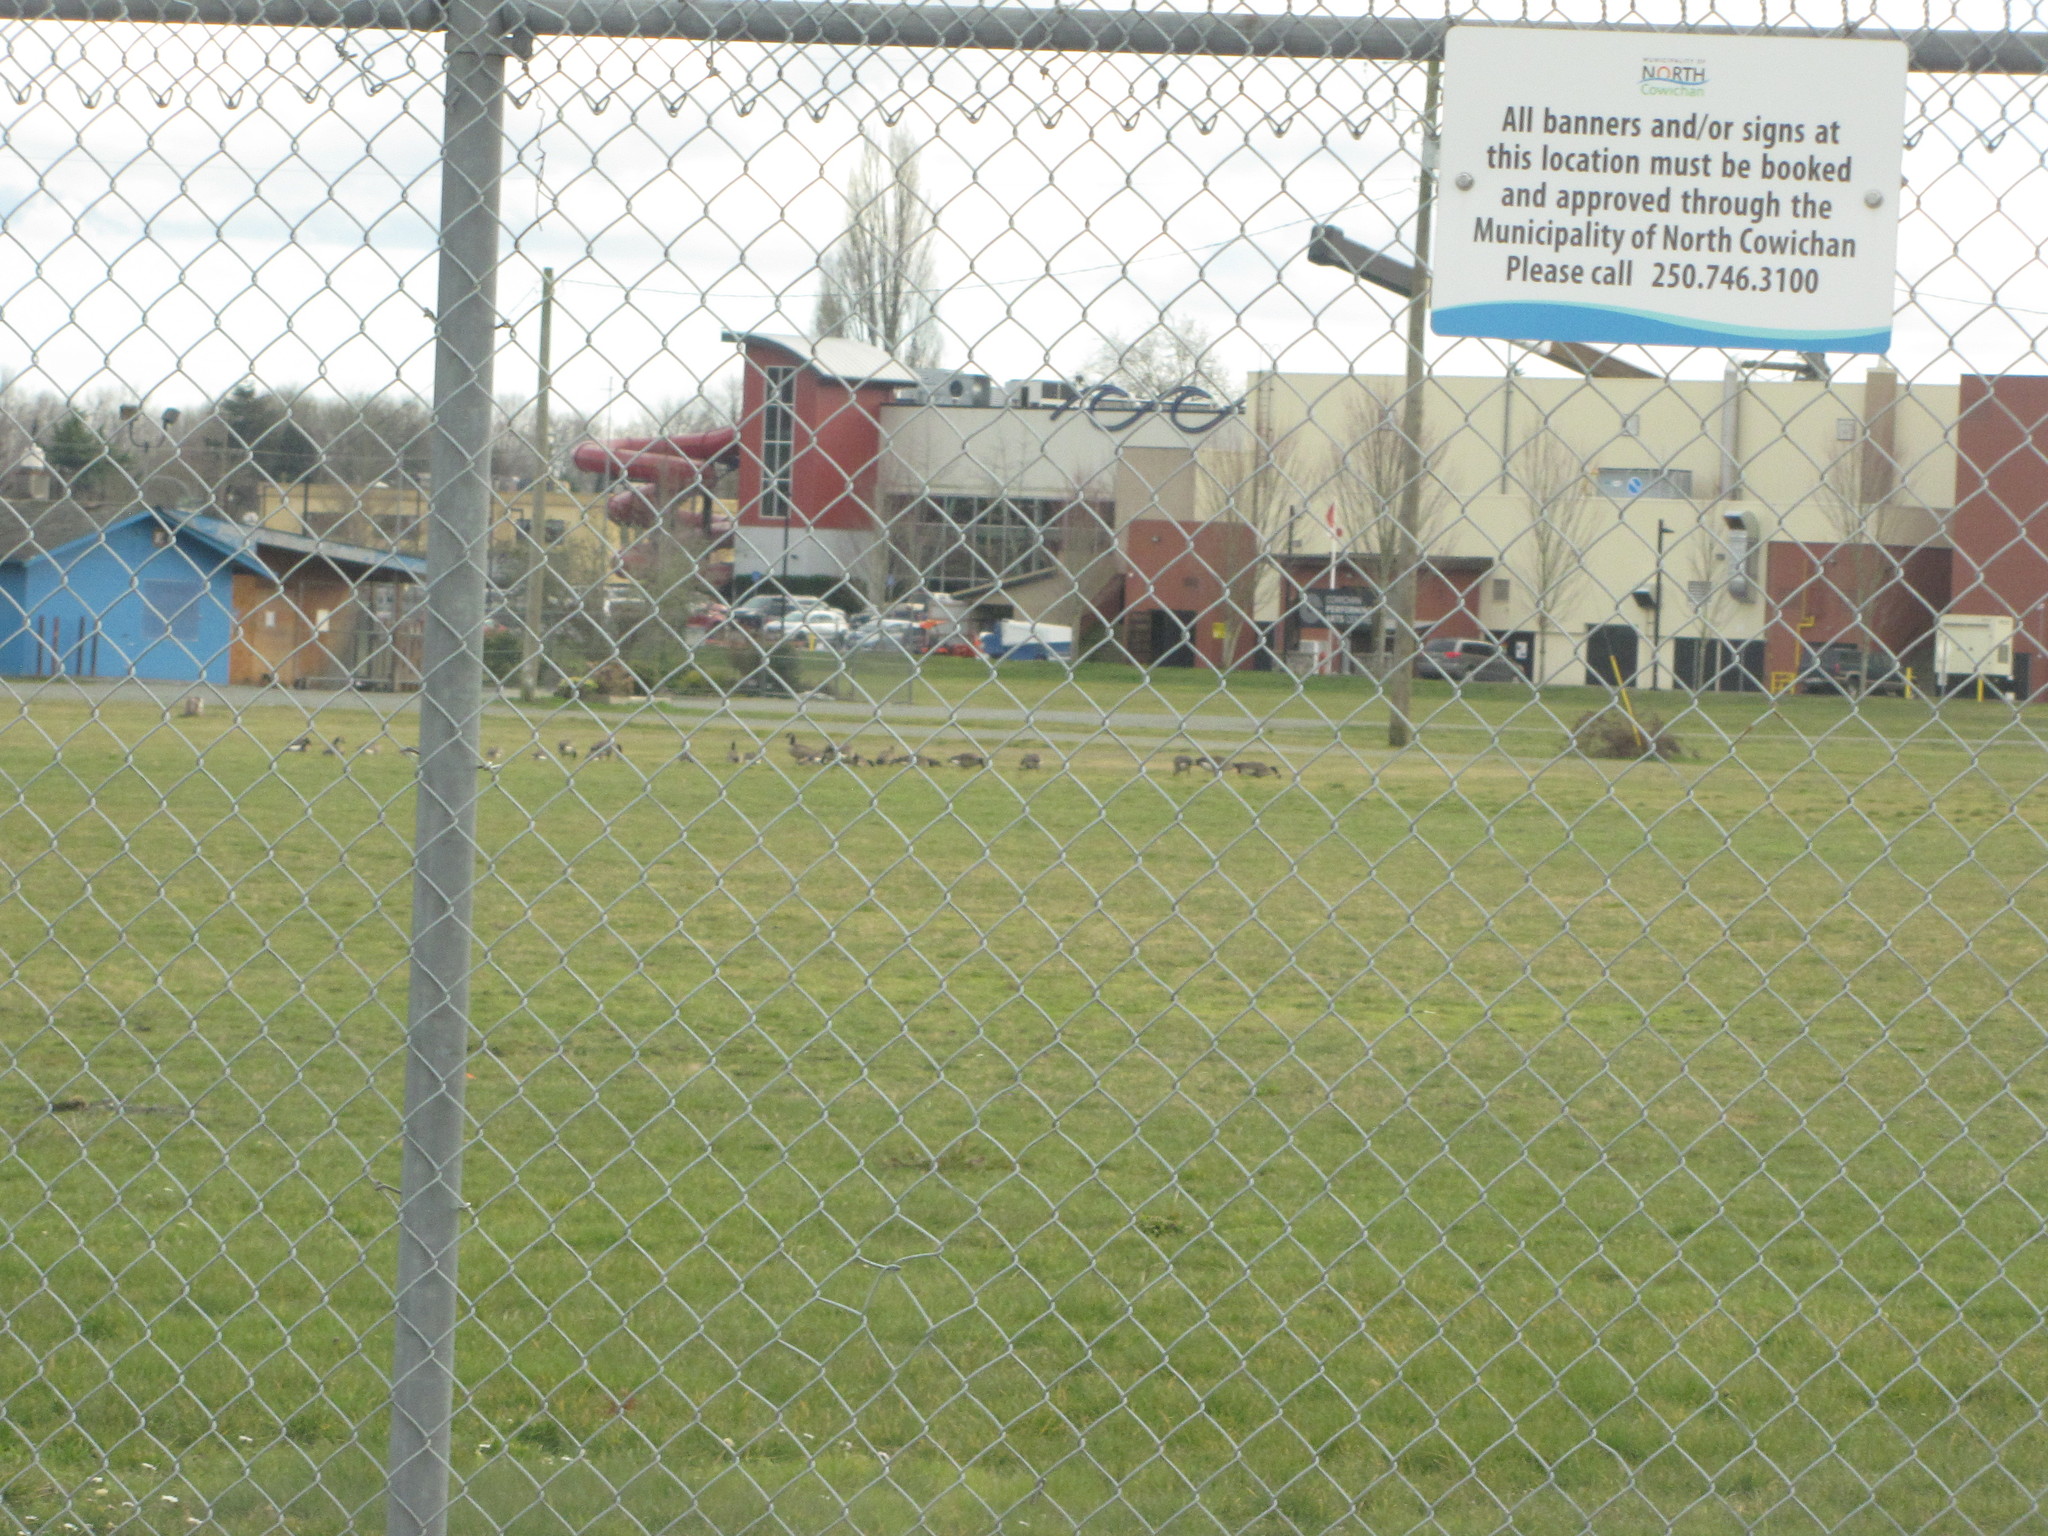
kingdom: Animalia
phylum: Chordata
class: Aves
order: Anseriformes
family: Anatidae
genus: Branta
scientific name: Branta canadensis
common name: Canada goose
